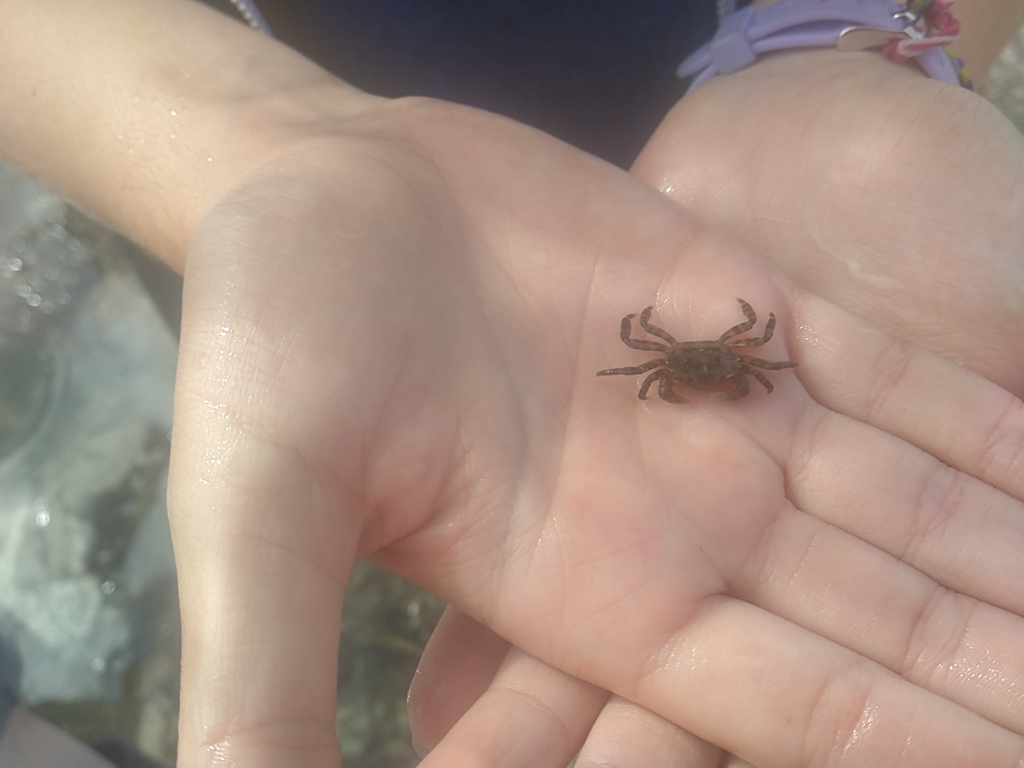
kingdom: Animalia
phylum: Arthropoda
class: Malacostraca
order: Decapoda
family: Varunidae
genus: Hemigrapsus
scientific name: Hemigrapsus sanguineus
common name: Asian shore crab
